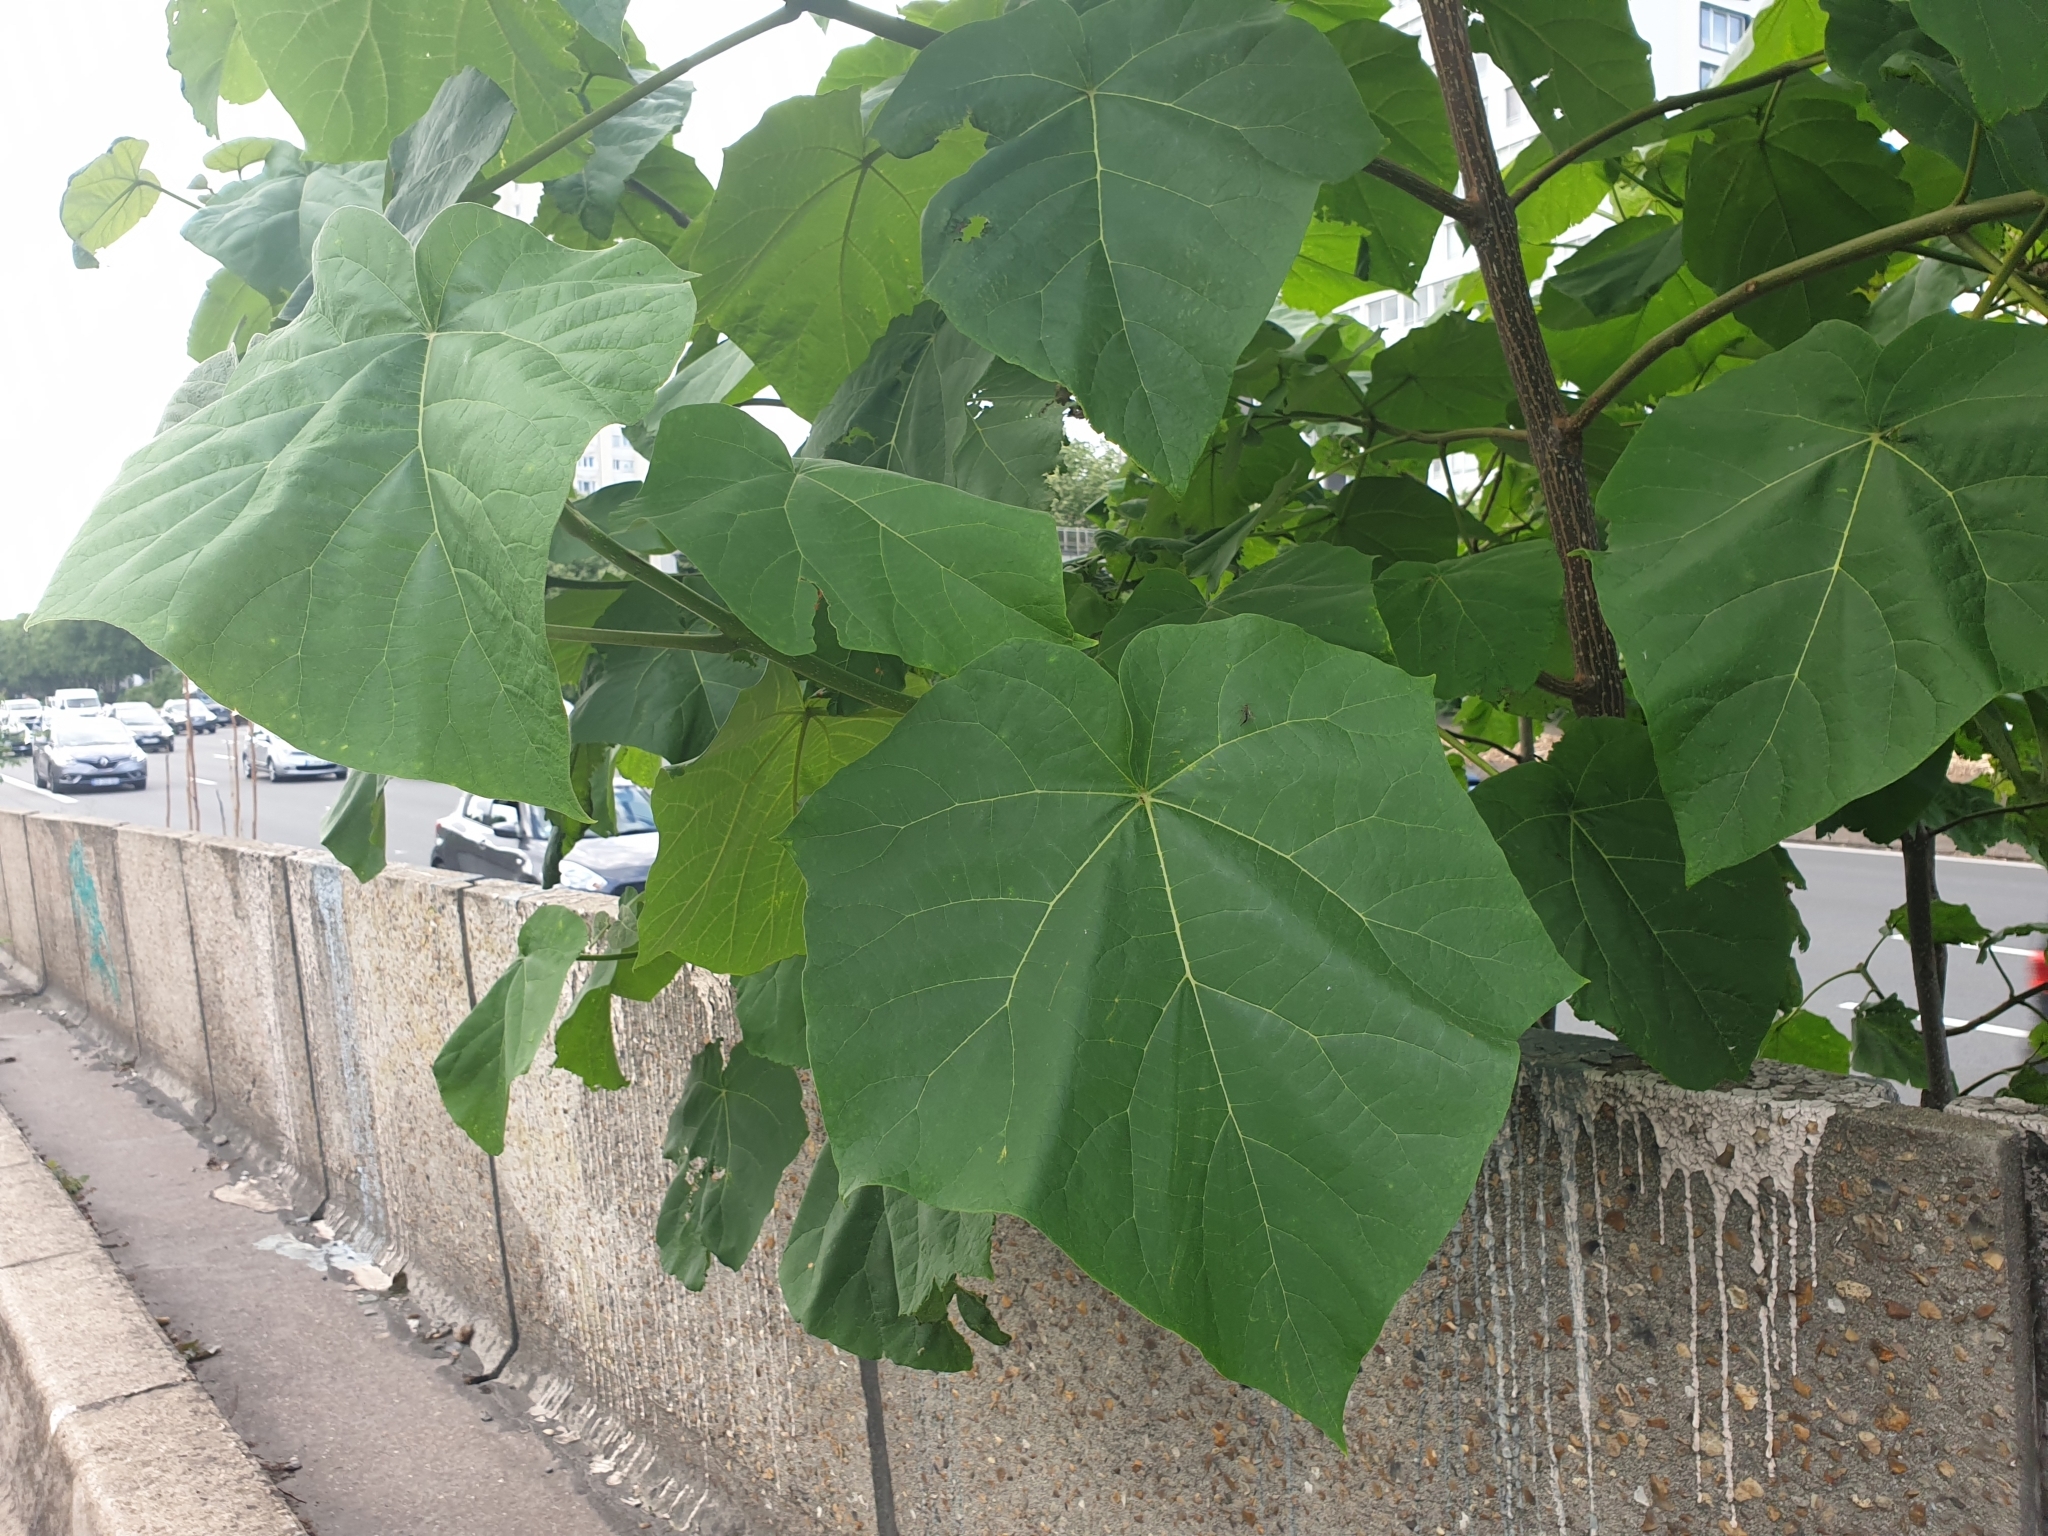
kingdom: Plantae
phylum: Tracheophyta
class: Magnoliopsida
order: Lamiales
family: Paulowniaceae
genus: Paulownia
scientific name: Paulownia tomentosa
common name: Foxglove-tree
